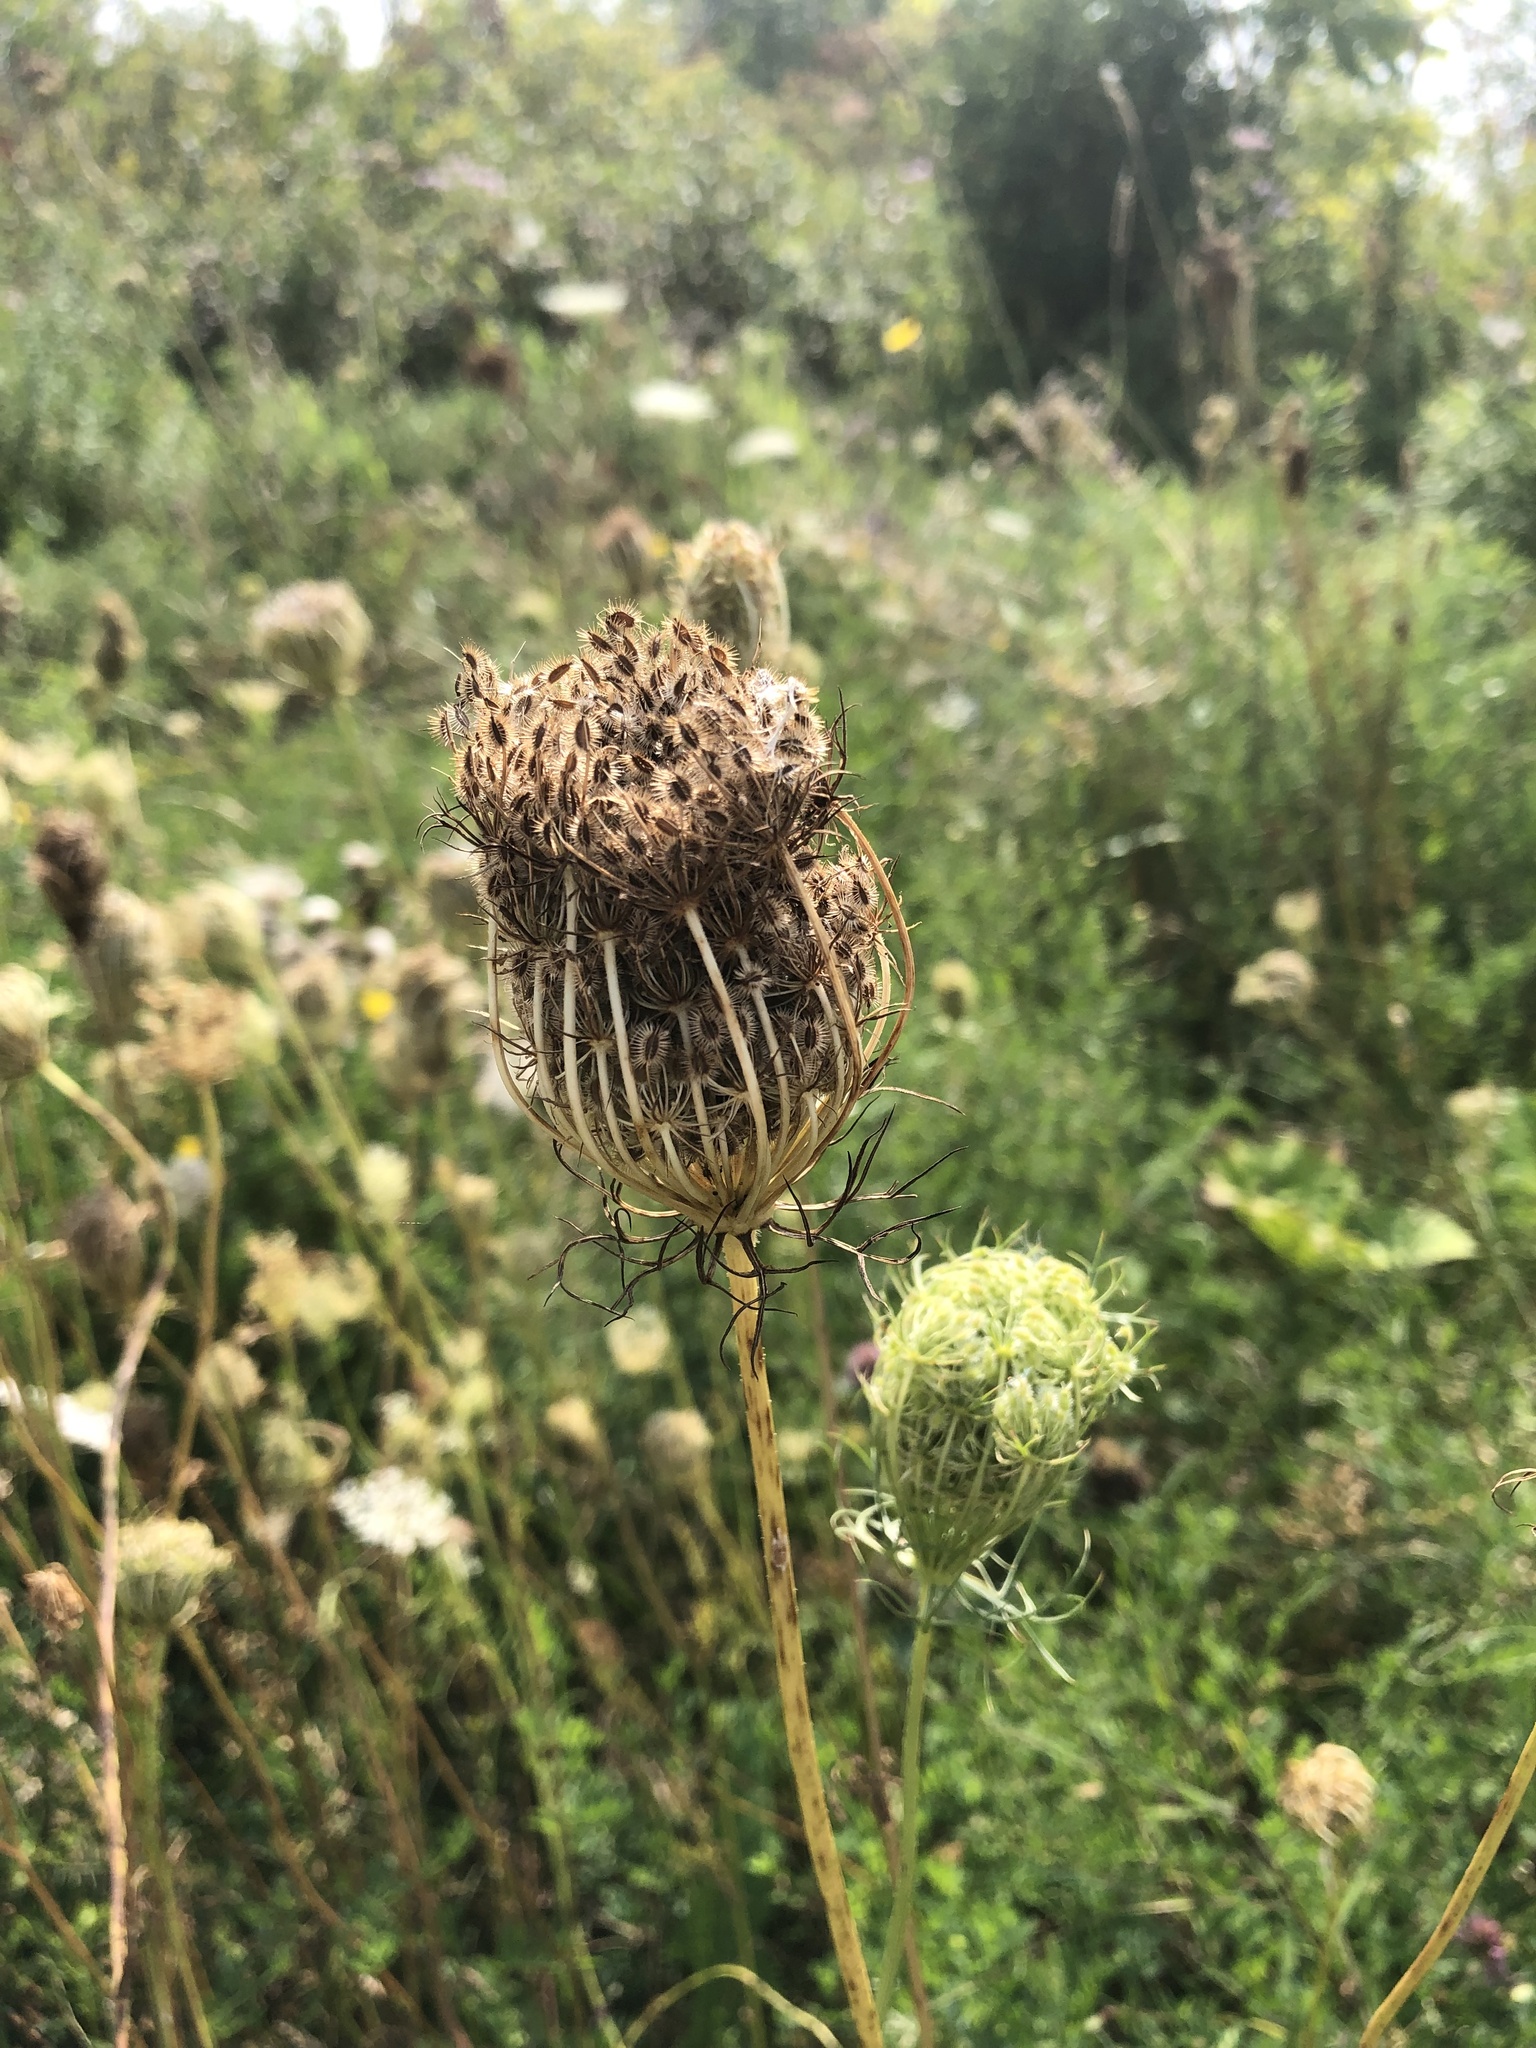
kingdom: Plantae
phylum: Tracheophyta
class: Magnoliopsida
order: Apiales
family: Apiaceae
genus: Daucus
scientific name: Daucus carota
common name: Wild carrot
